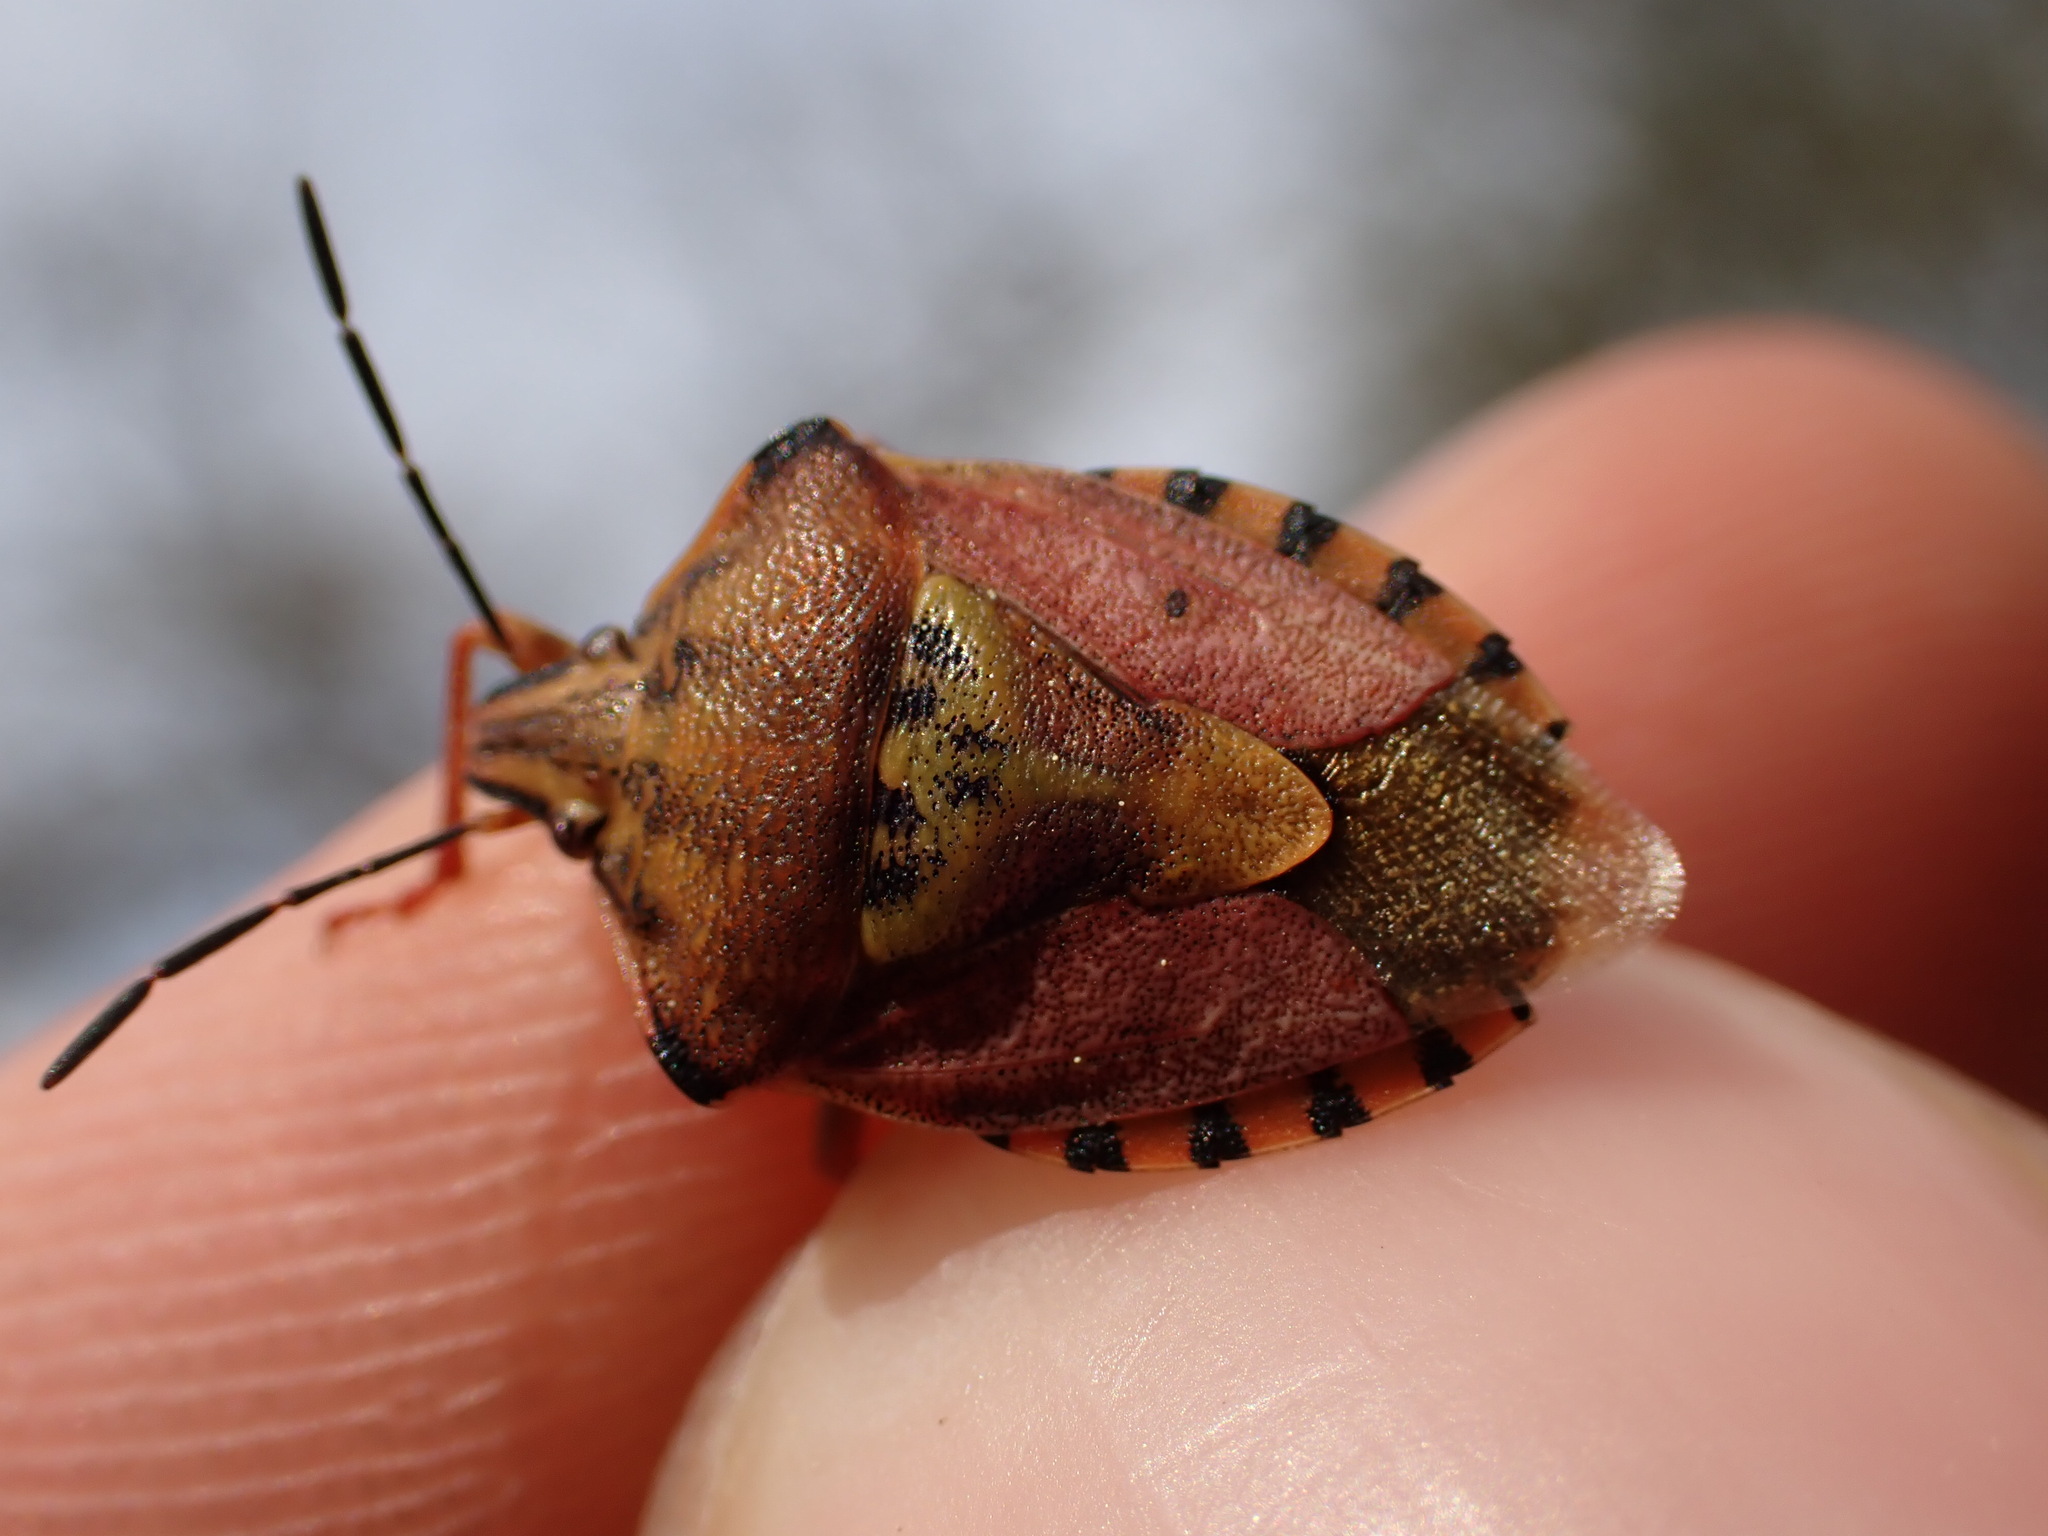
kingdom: Animalia
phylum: Arthropoda
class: Insecta
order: Hemiptera
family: Pentatomidae
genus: Carpocoris
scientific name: Carpocoris purpureipennis
